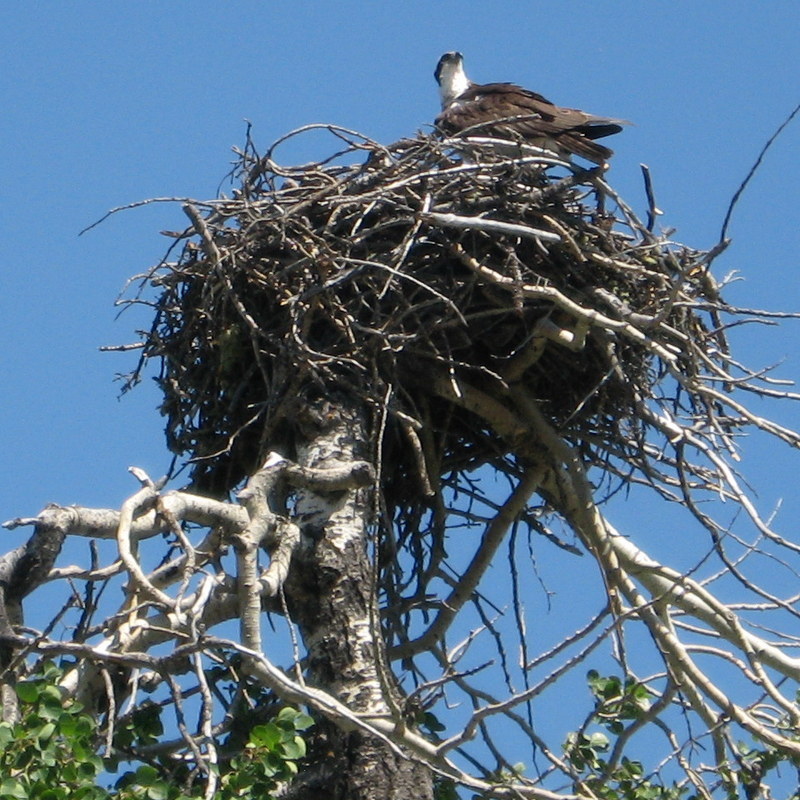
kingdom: Animalia
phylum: Chordata
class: Aves
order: Accipitriformes
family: Pandionidae
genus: Pandion
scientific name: Pandion haliaetus
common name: Osprey
